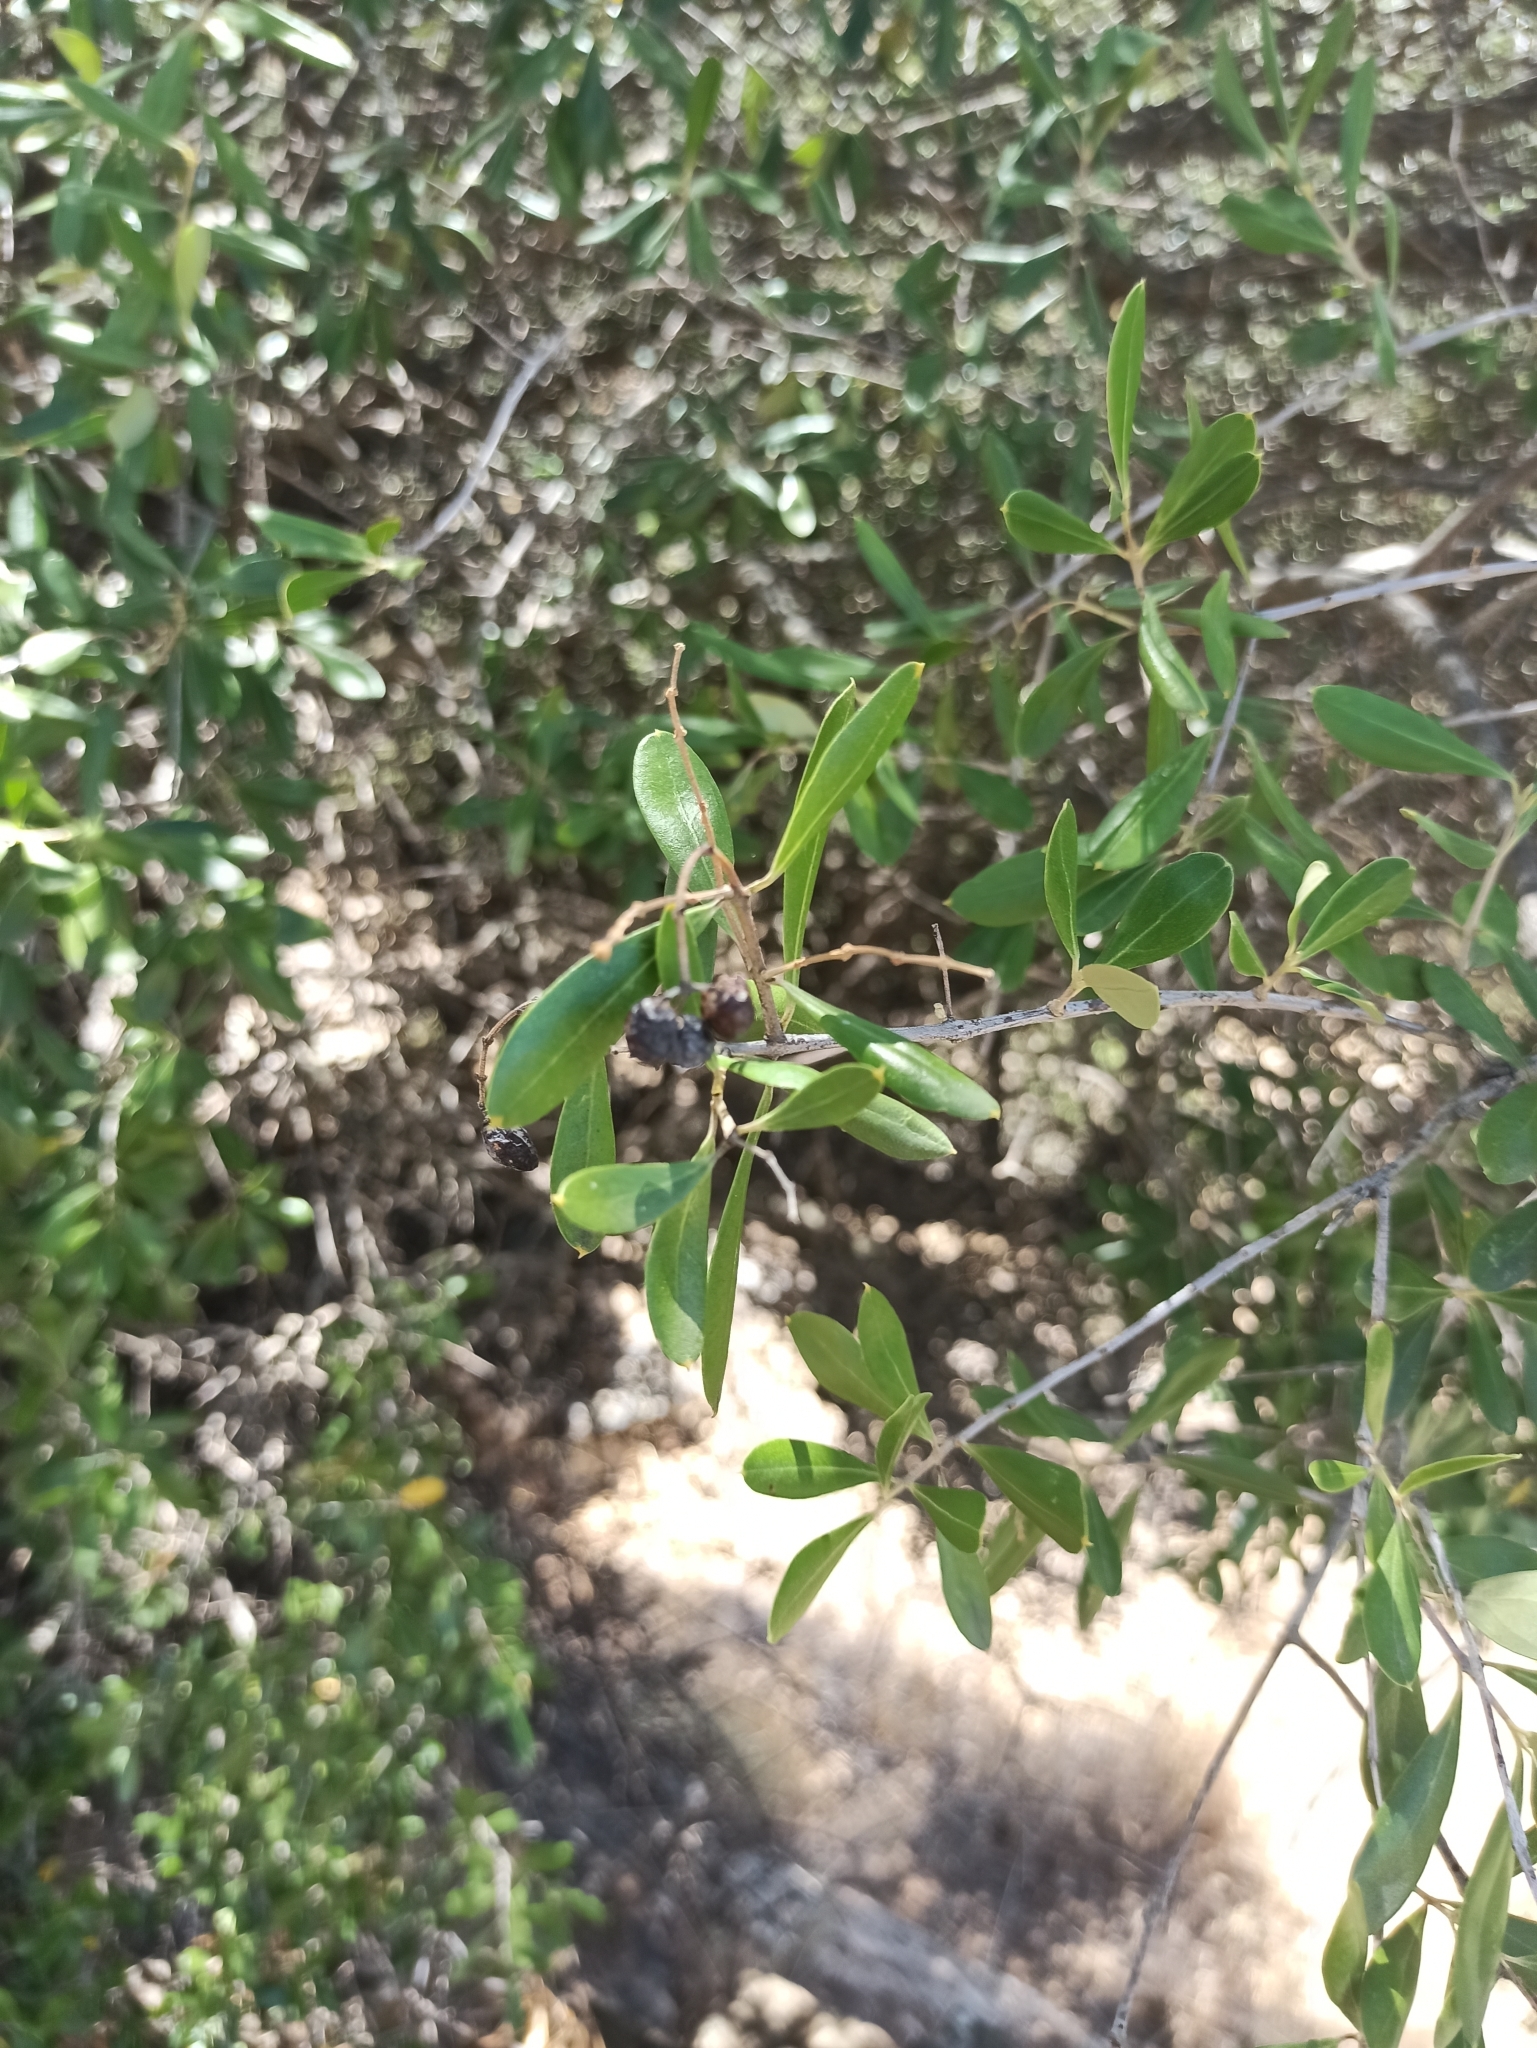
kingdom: Plantae
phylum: Tracheophyta
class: Magnoliopsida
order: Lamiales
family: Oleaceae
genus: Olea
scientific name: Olea europaea
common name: Olive
